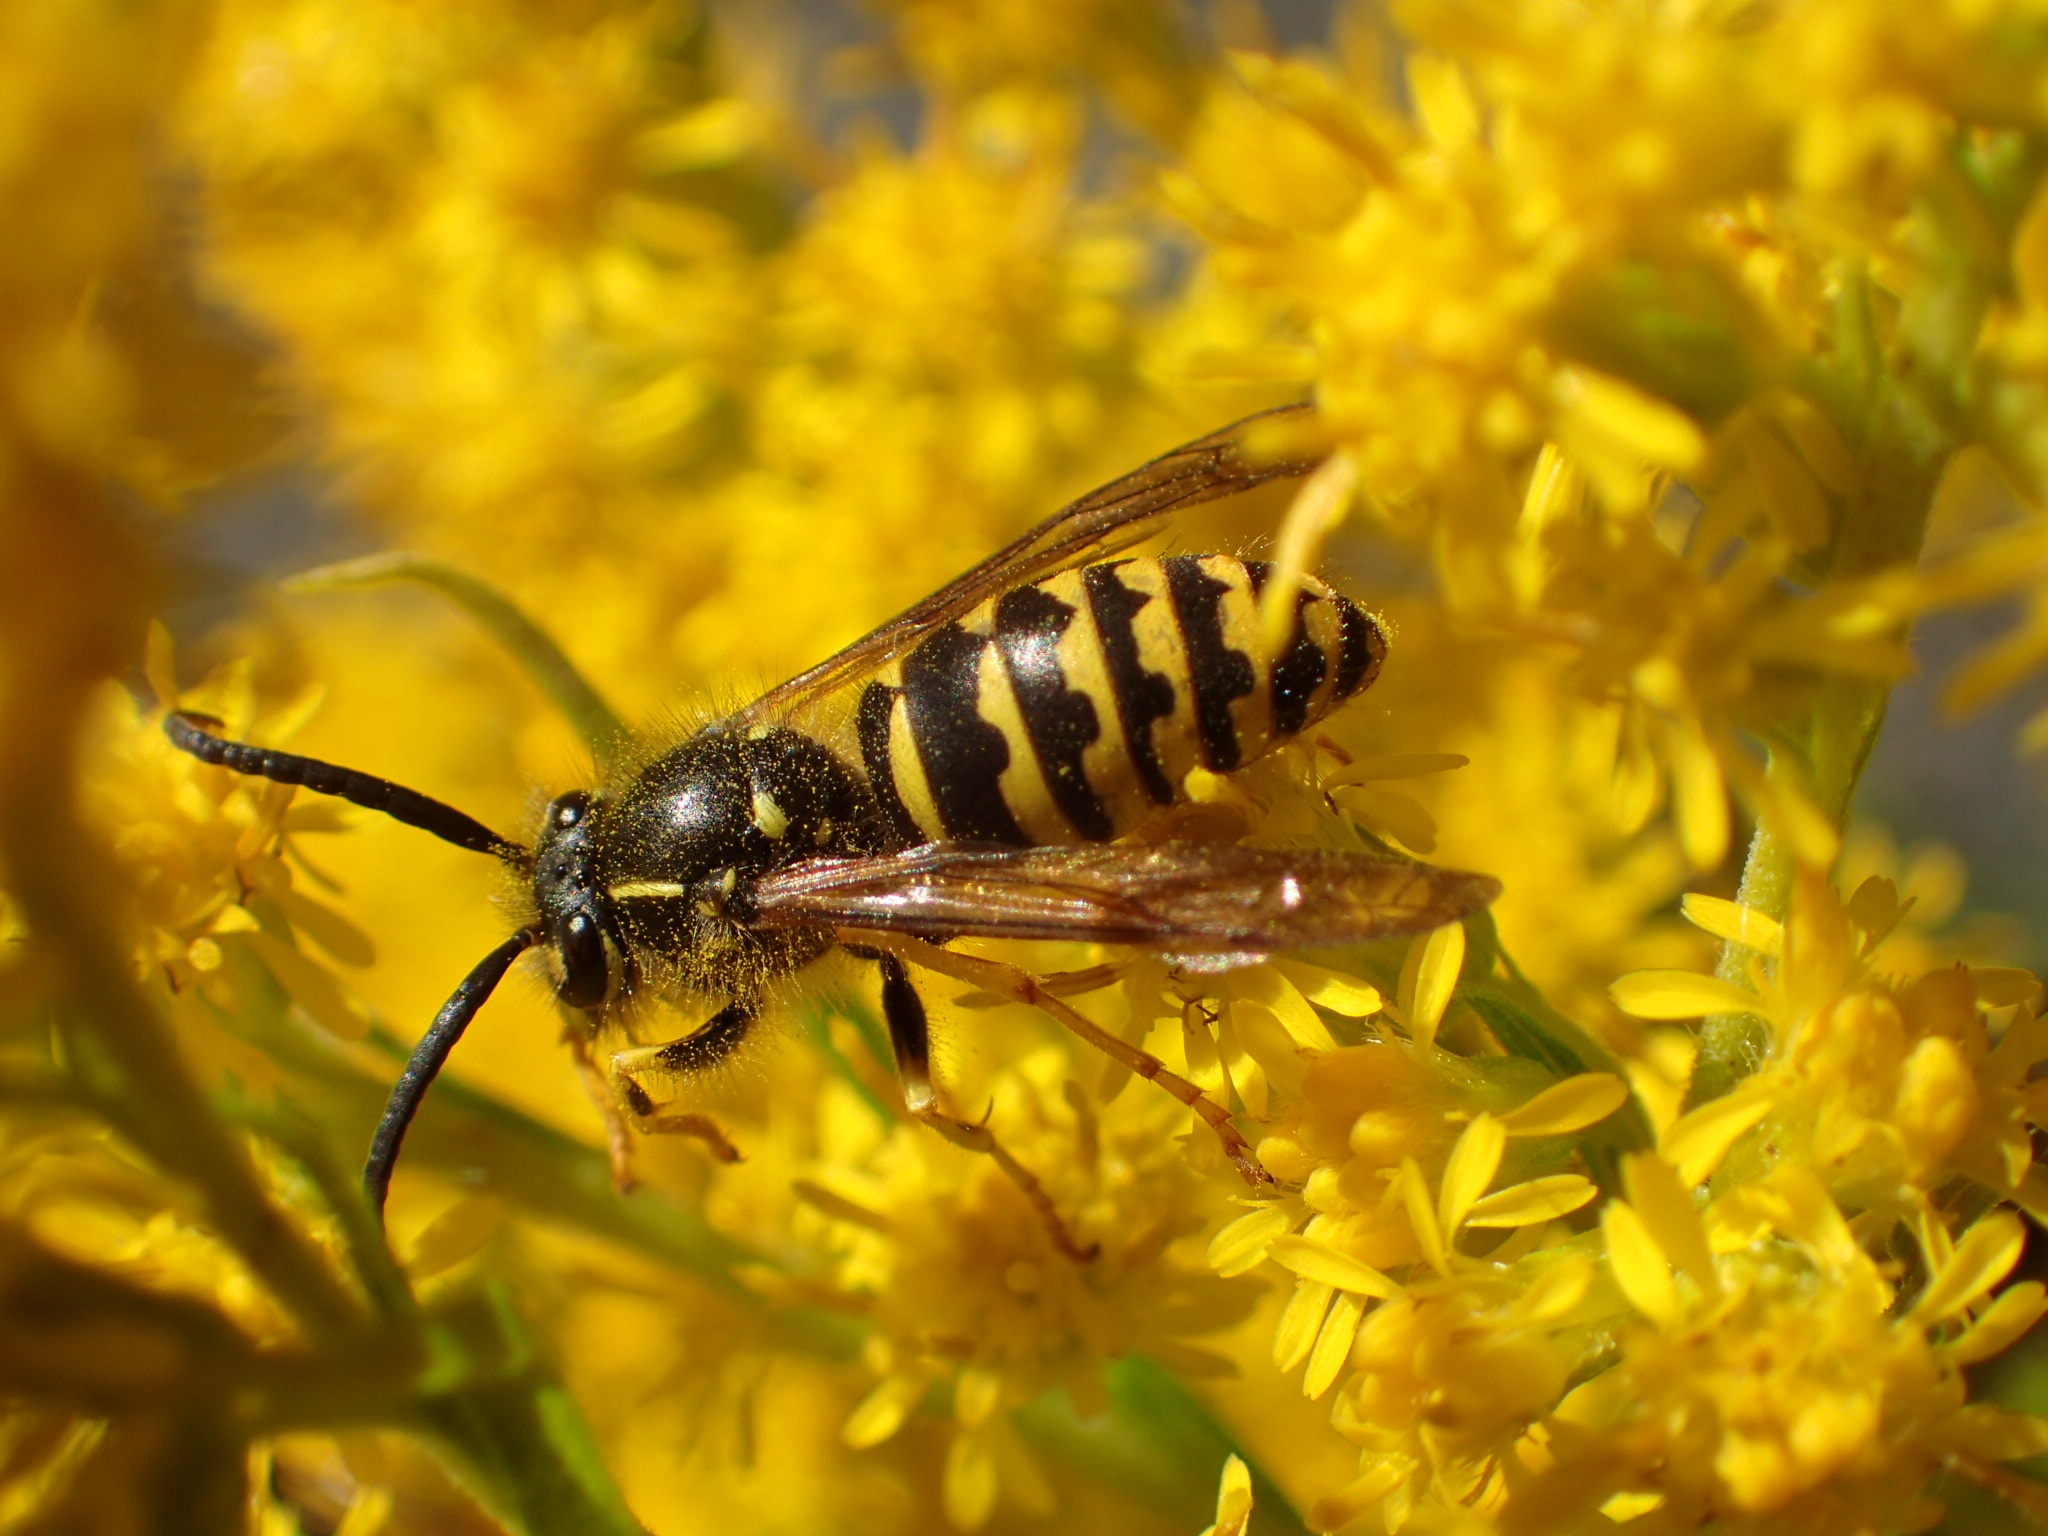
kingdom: Animalia
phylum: Arthropoda
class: Insecta
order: Hymenoptera
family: Vespidae
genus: Dolichovespula
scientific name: Dolichovespula arenaria
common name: Aerial yellowjacket
